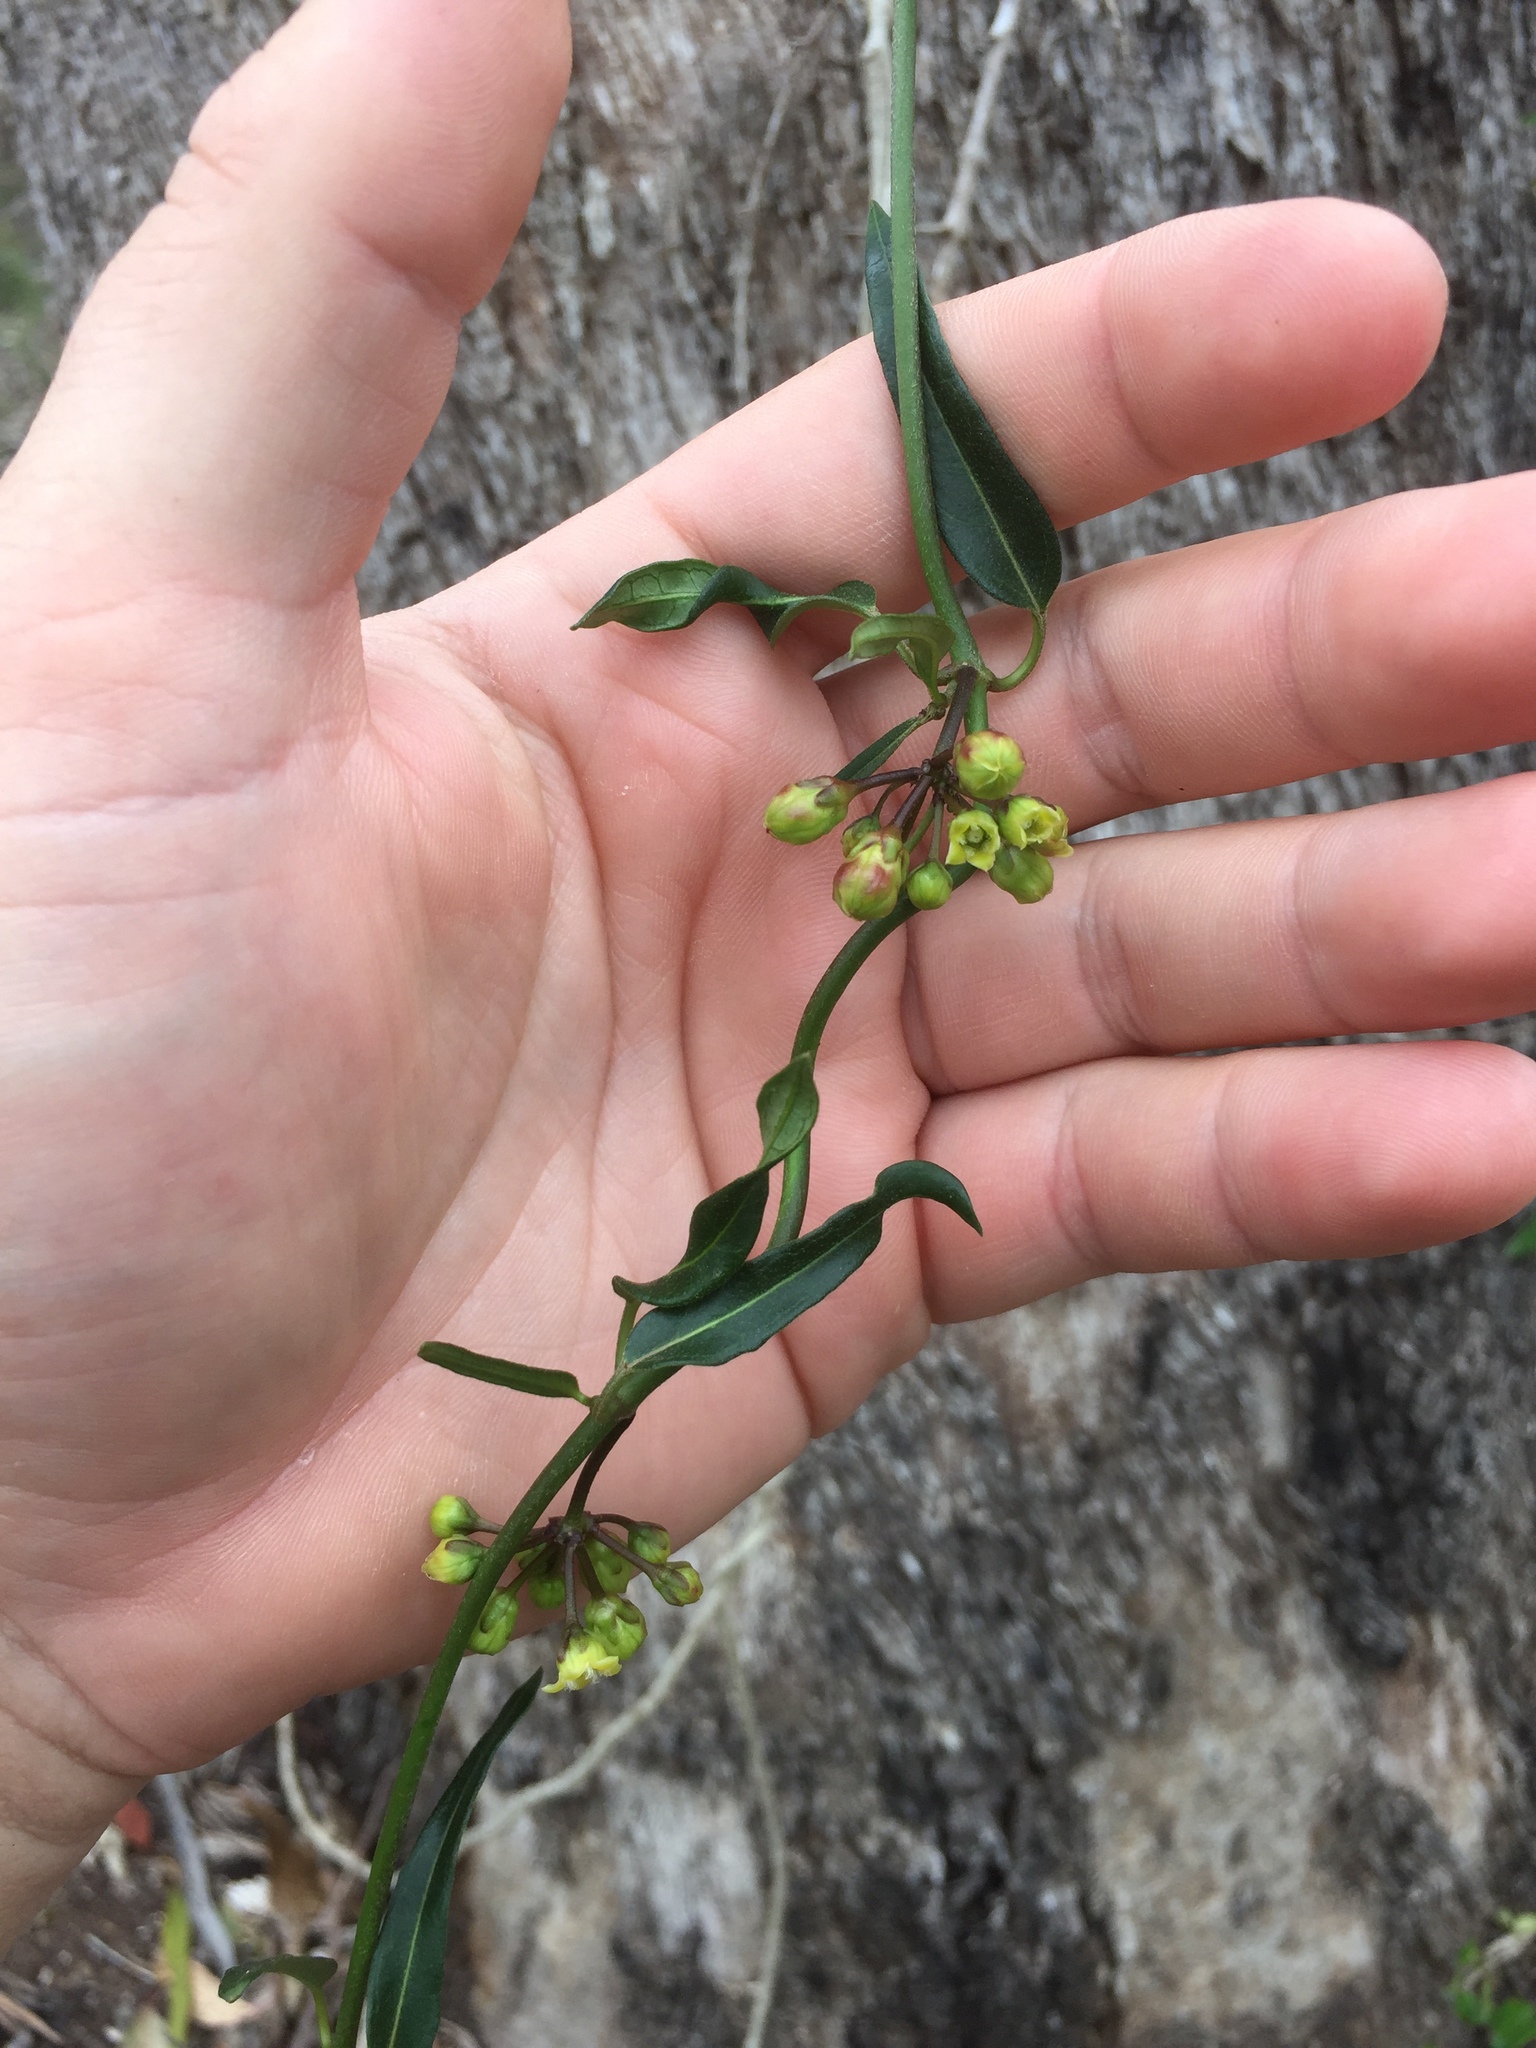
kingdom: Plantae
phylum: Tracheophyta
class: Magnoliopsida
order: Gentianales
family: Apocynaceae
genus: Leichhardtia
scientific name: Leichhardtia viridiflora
